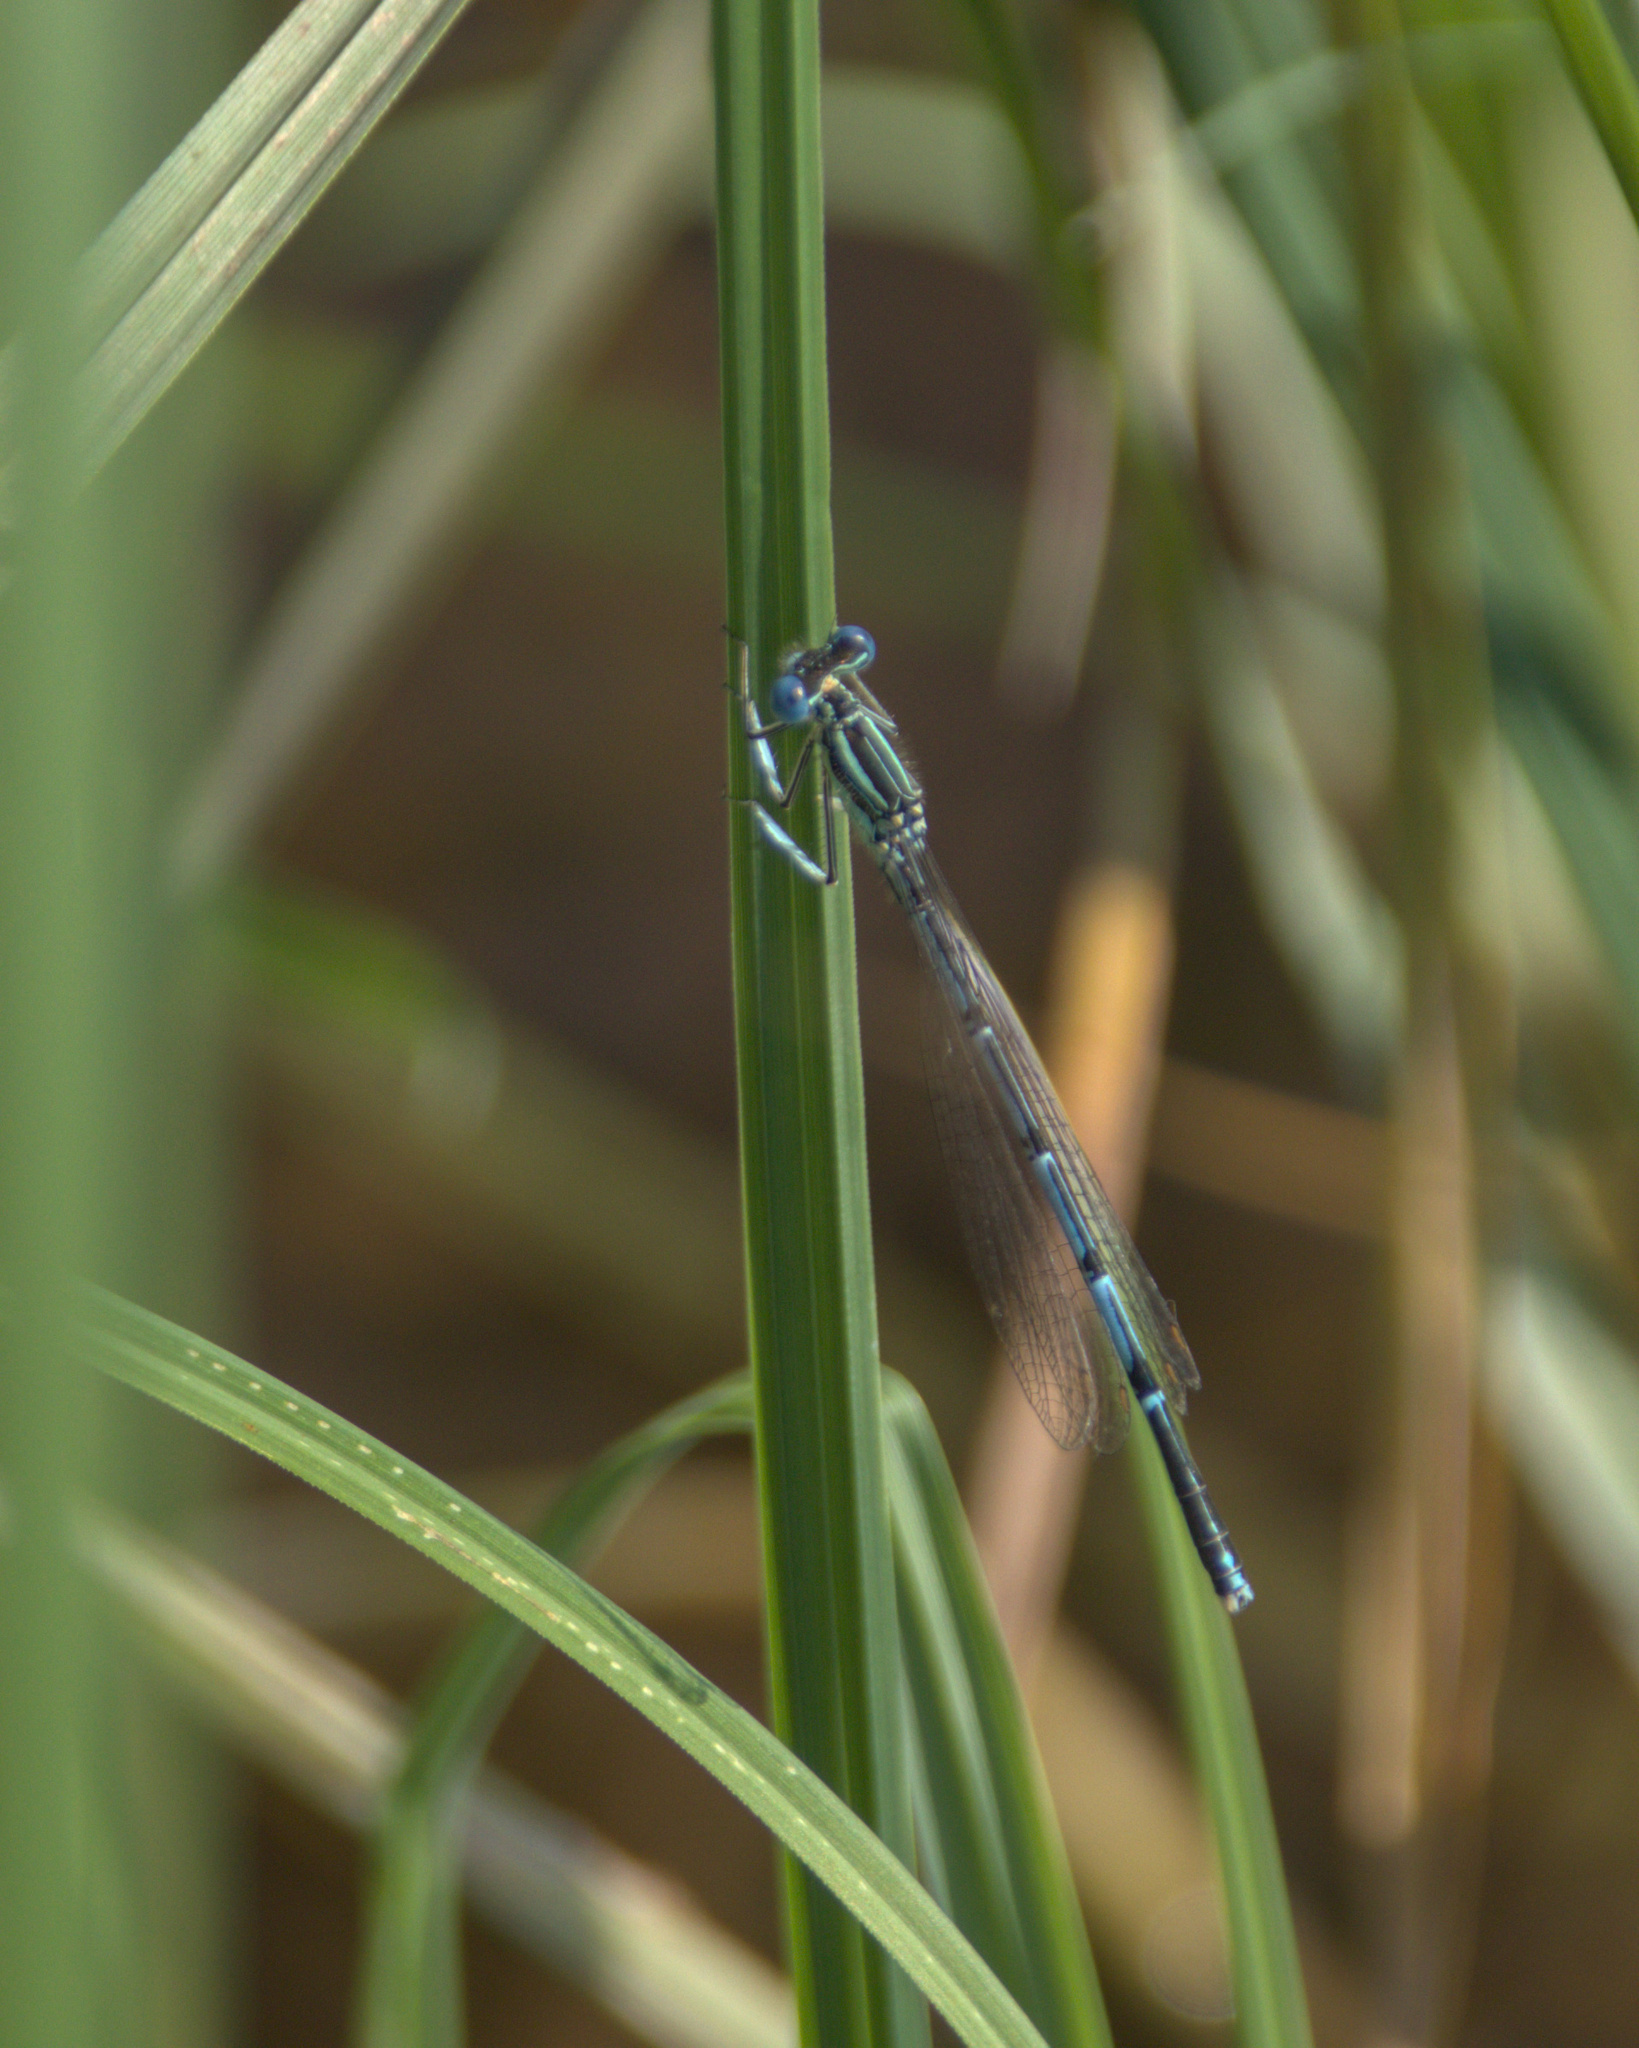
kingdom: Animalia
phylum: Arthropoda
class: Insecta
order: Odonata
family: Platycnemididae
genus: Platycnemis
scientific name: Platycnemis pennipes
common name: White-legged damselfly
